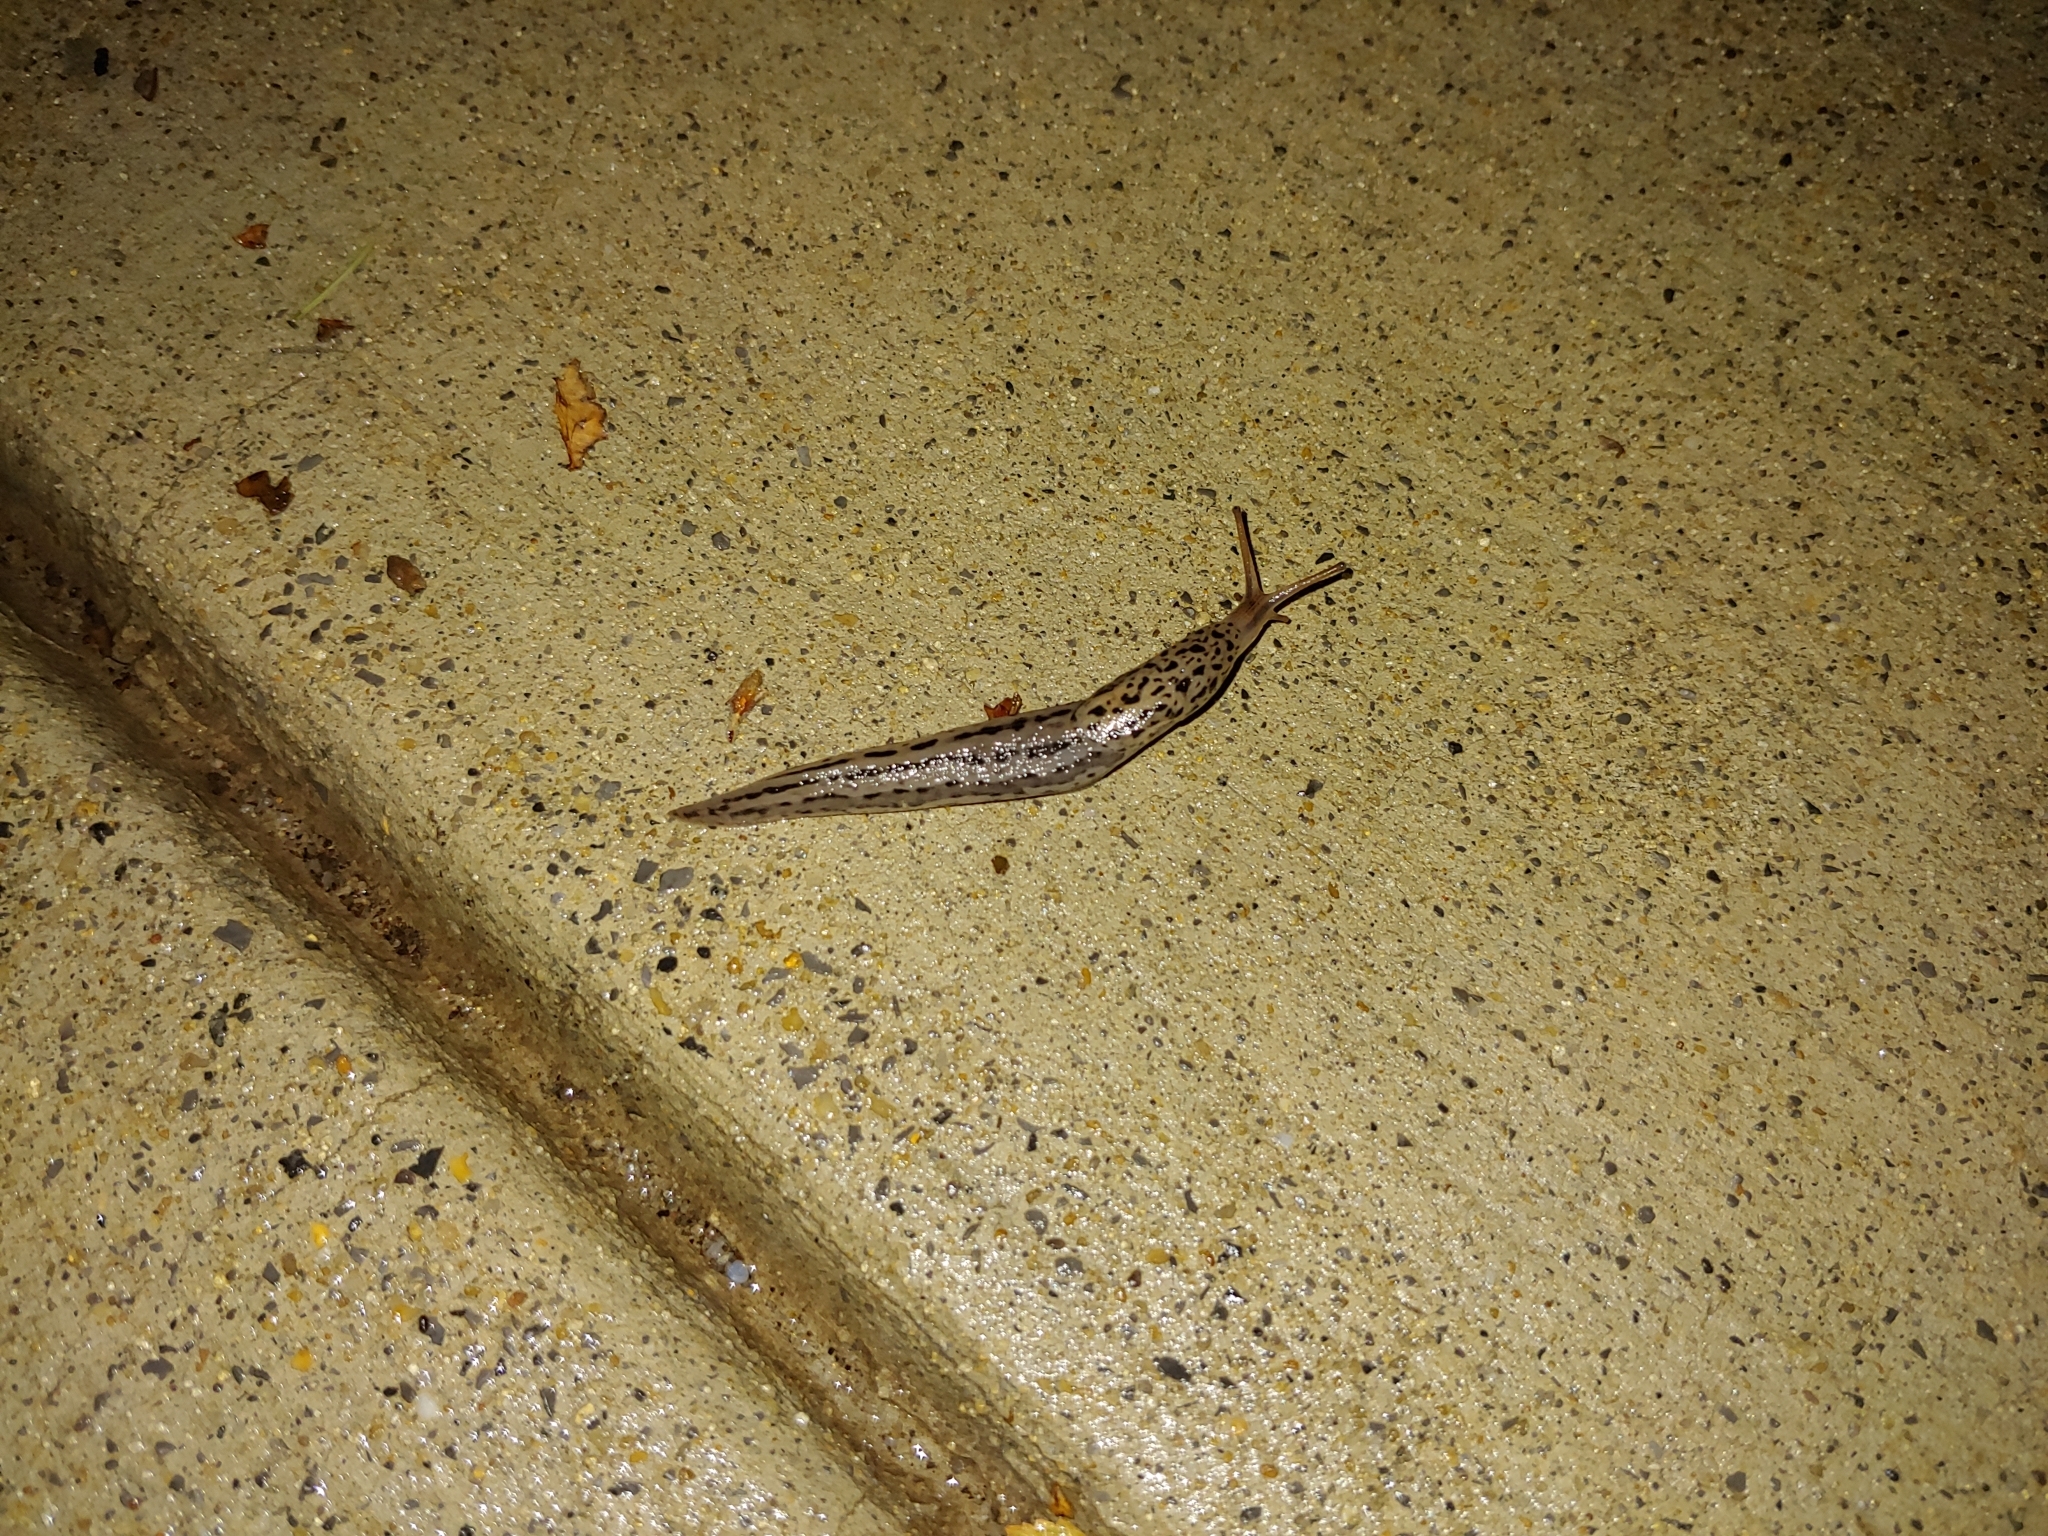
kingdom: Animalia
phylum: Mollusca
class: Gastropoda
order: Stylommatophora
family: Limacidae
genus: Limax
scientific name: Limax maximus
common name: Great grey slug
